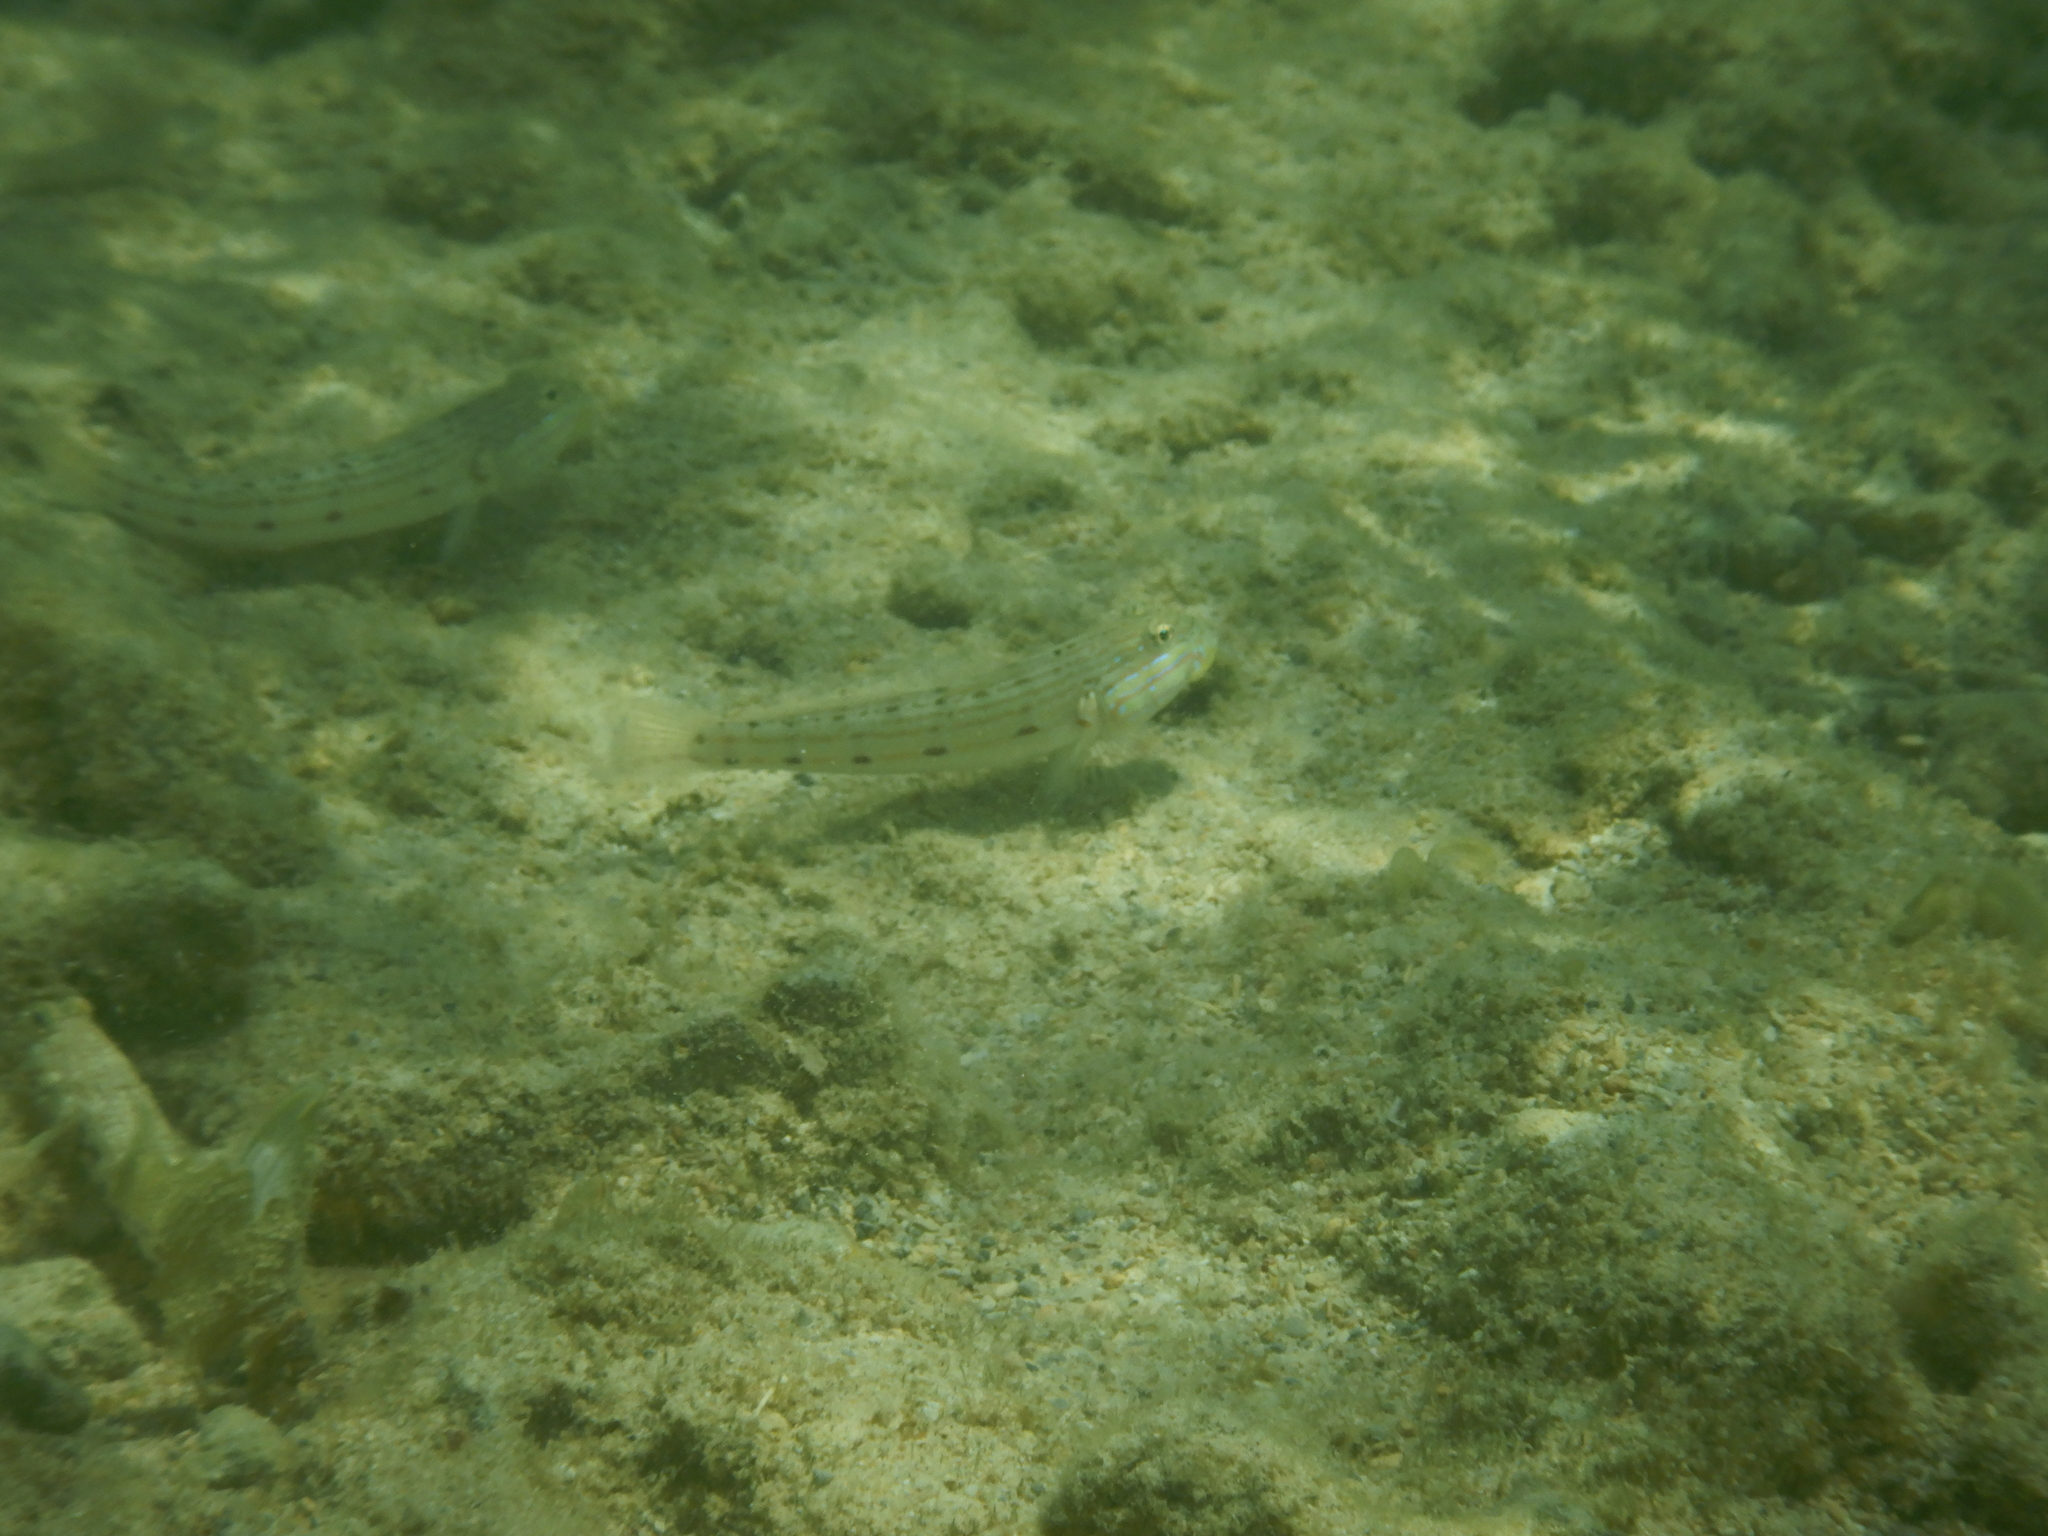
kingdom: Animalia
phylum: Chordata
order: Perciformes
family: Gobiidae
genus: Valenciennea
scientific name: Valenciennea longipinnis
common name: Longfinned goby
